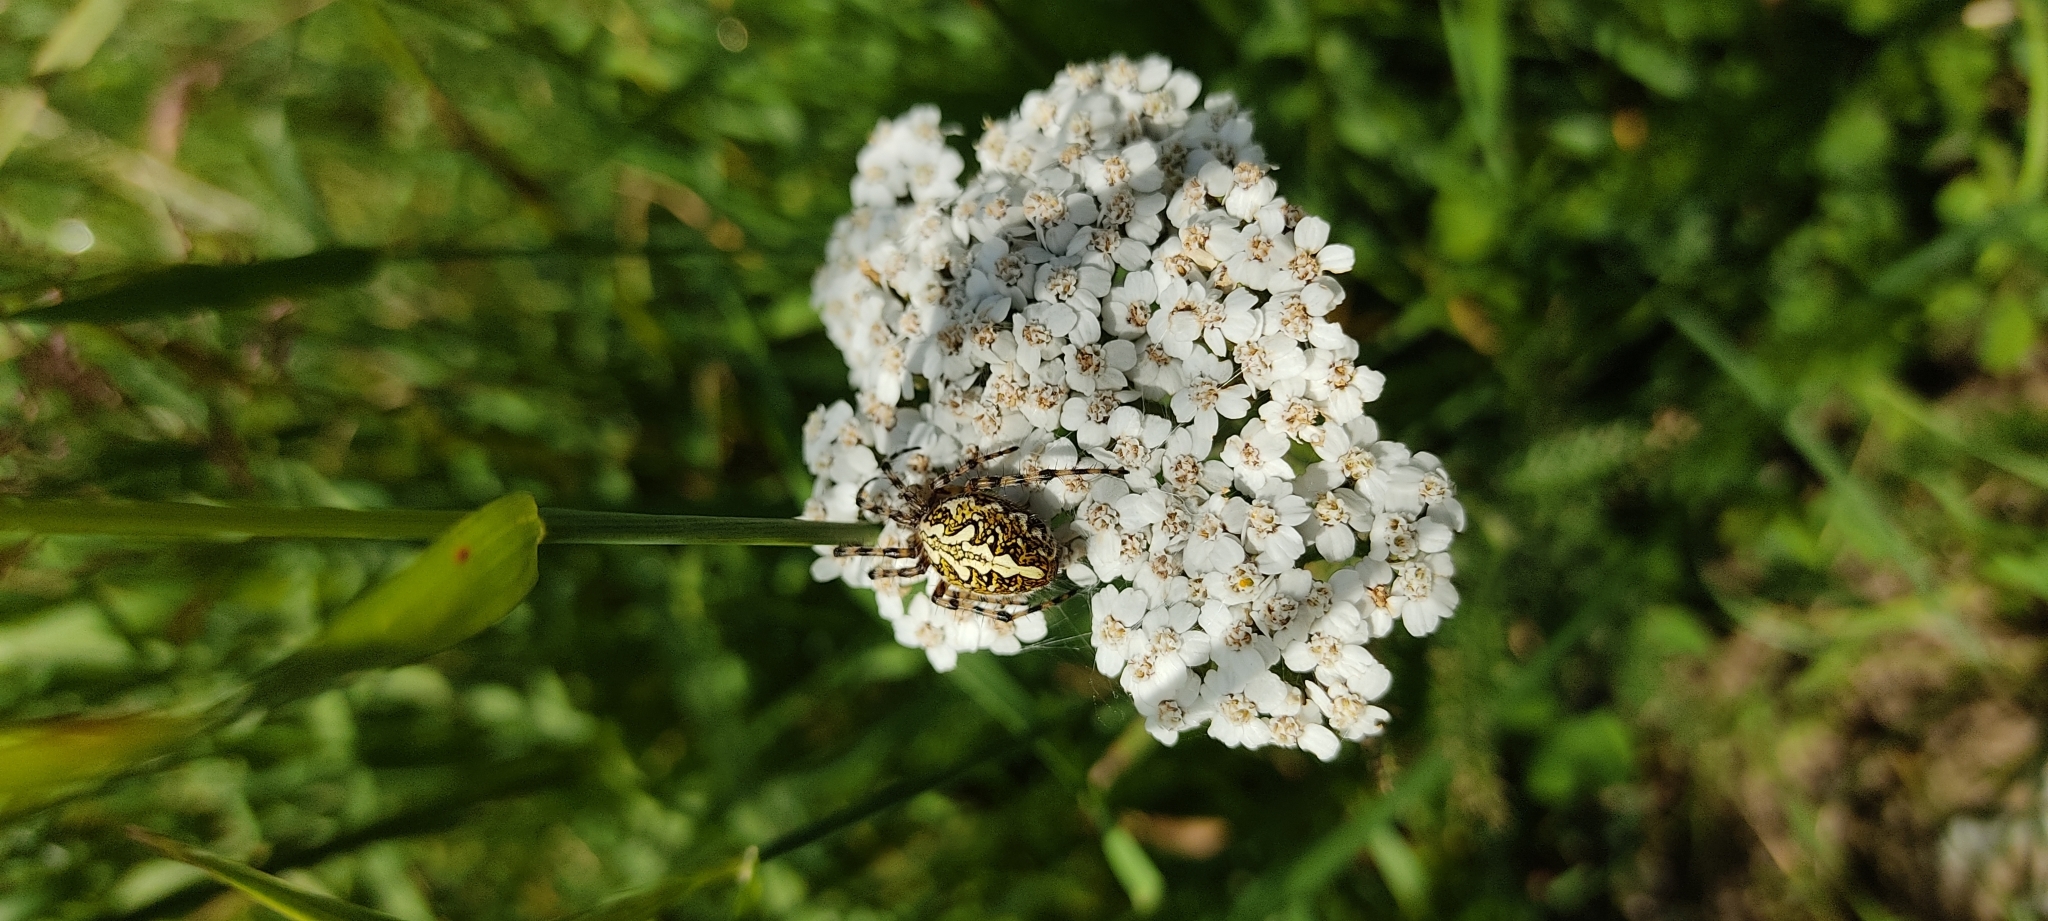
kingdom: Animalia
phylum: Arthropoda
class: Arachnida
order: Araneae
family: Araneidae
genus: Aculepeira
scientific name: Aculepeira ceropegia
